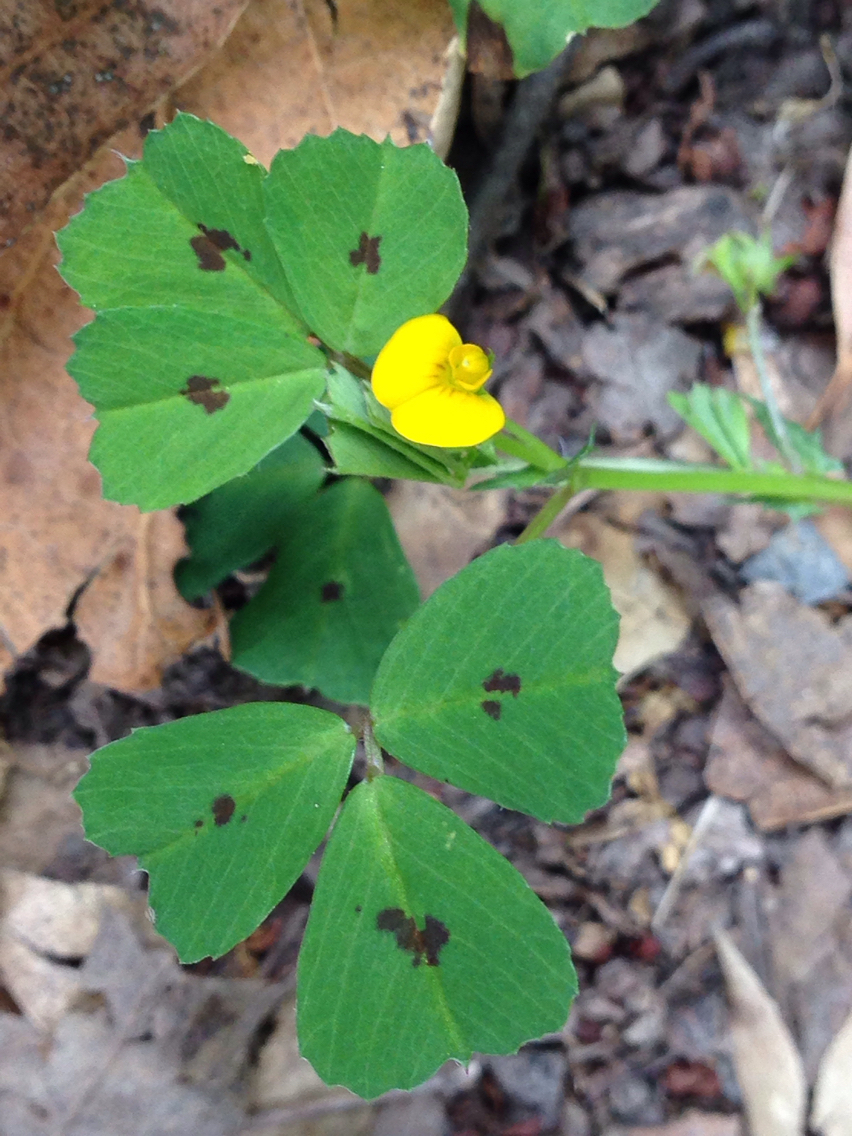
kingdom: Plantae
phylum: Tracheophyta
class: Magnoliopsida
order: Fabales
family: Fabaceae
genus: Medicago
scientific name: Medicago arabica
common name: Spotted medick
